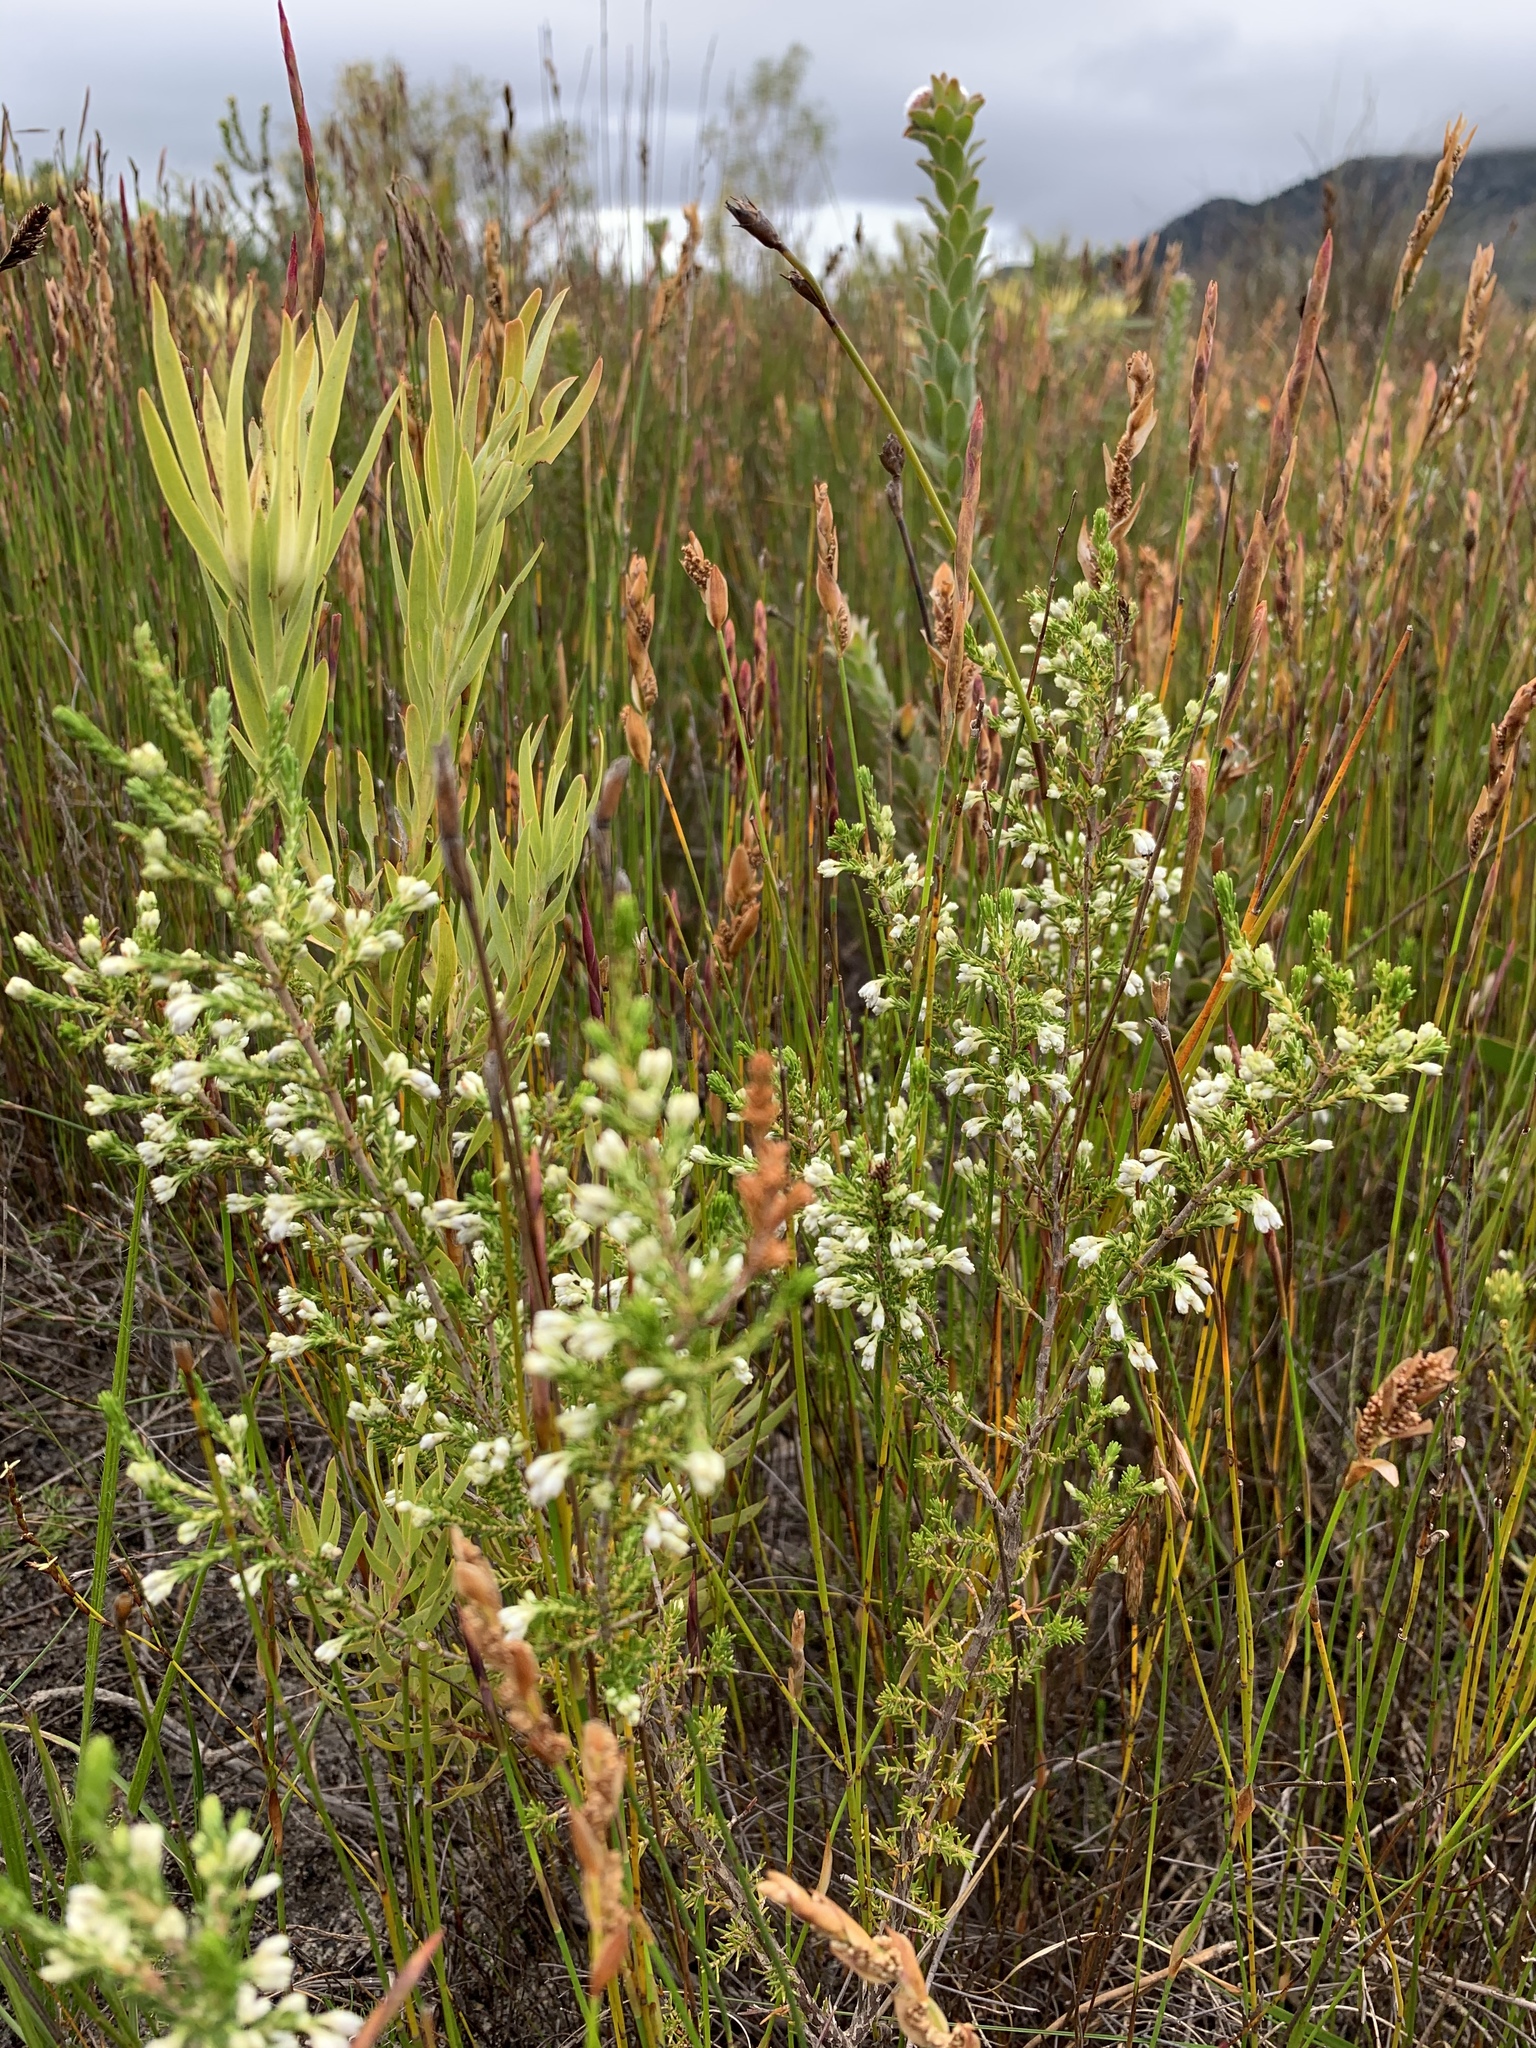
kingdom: Plantae
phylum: Tracheophyta
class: Magnoliopsida
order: Ericales
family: Ericaceae
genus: Erica
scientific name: Erica imbricata
